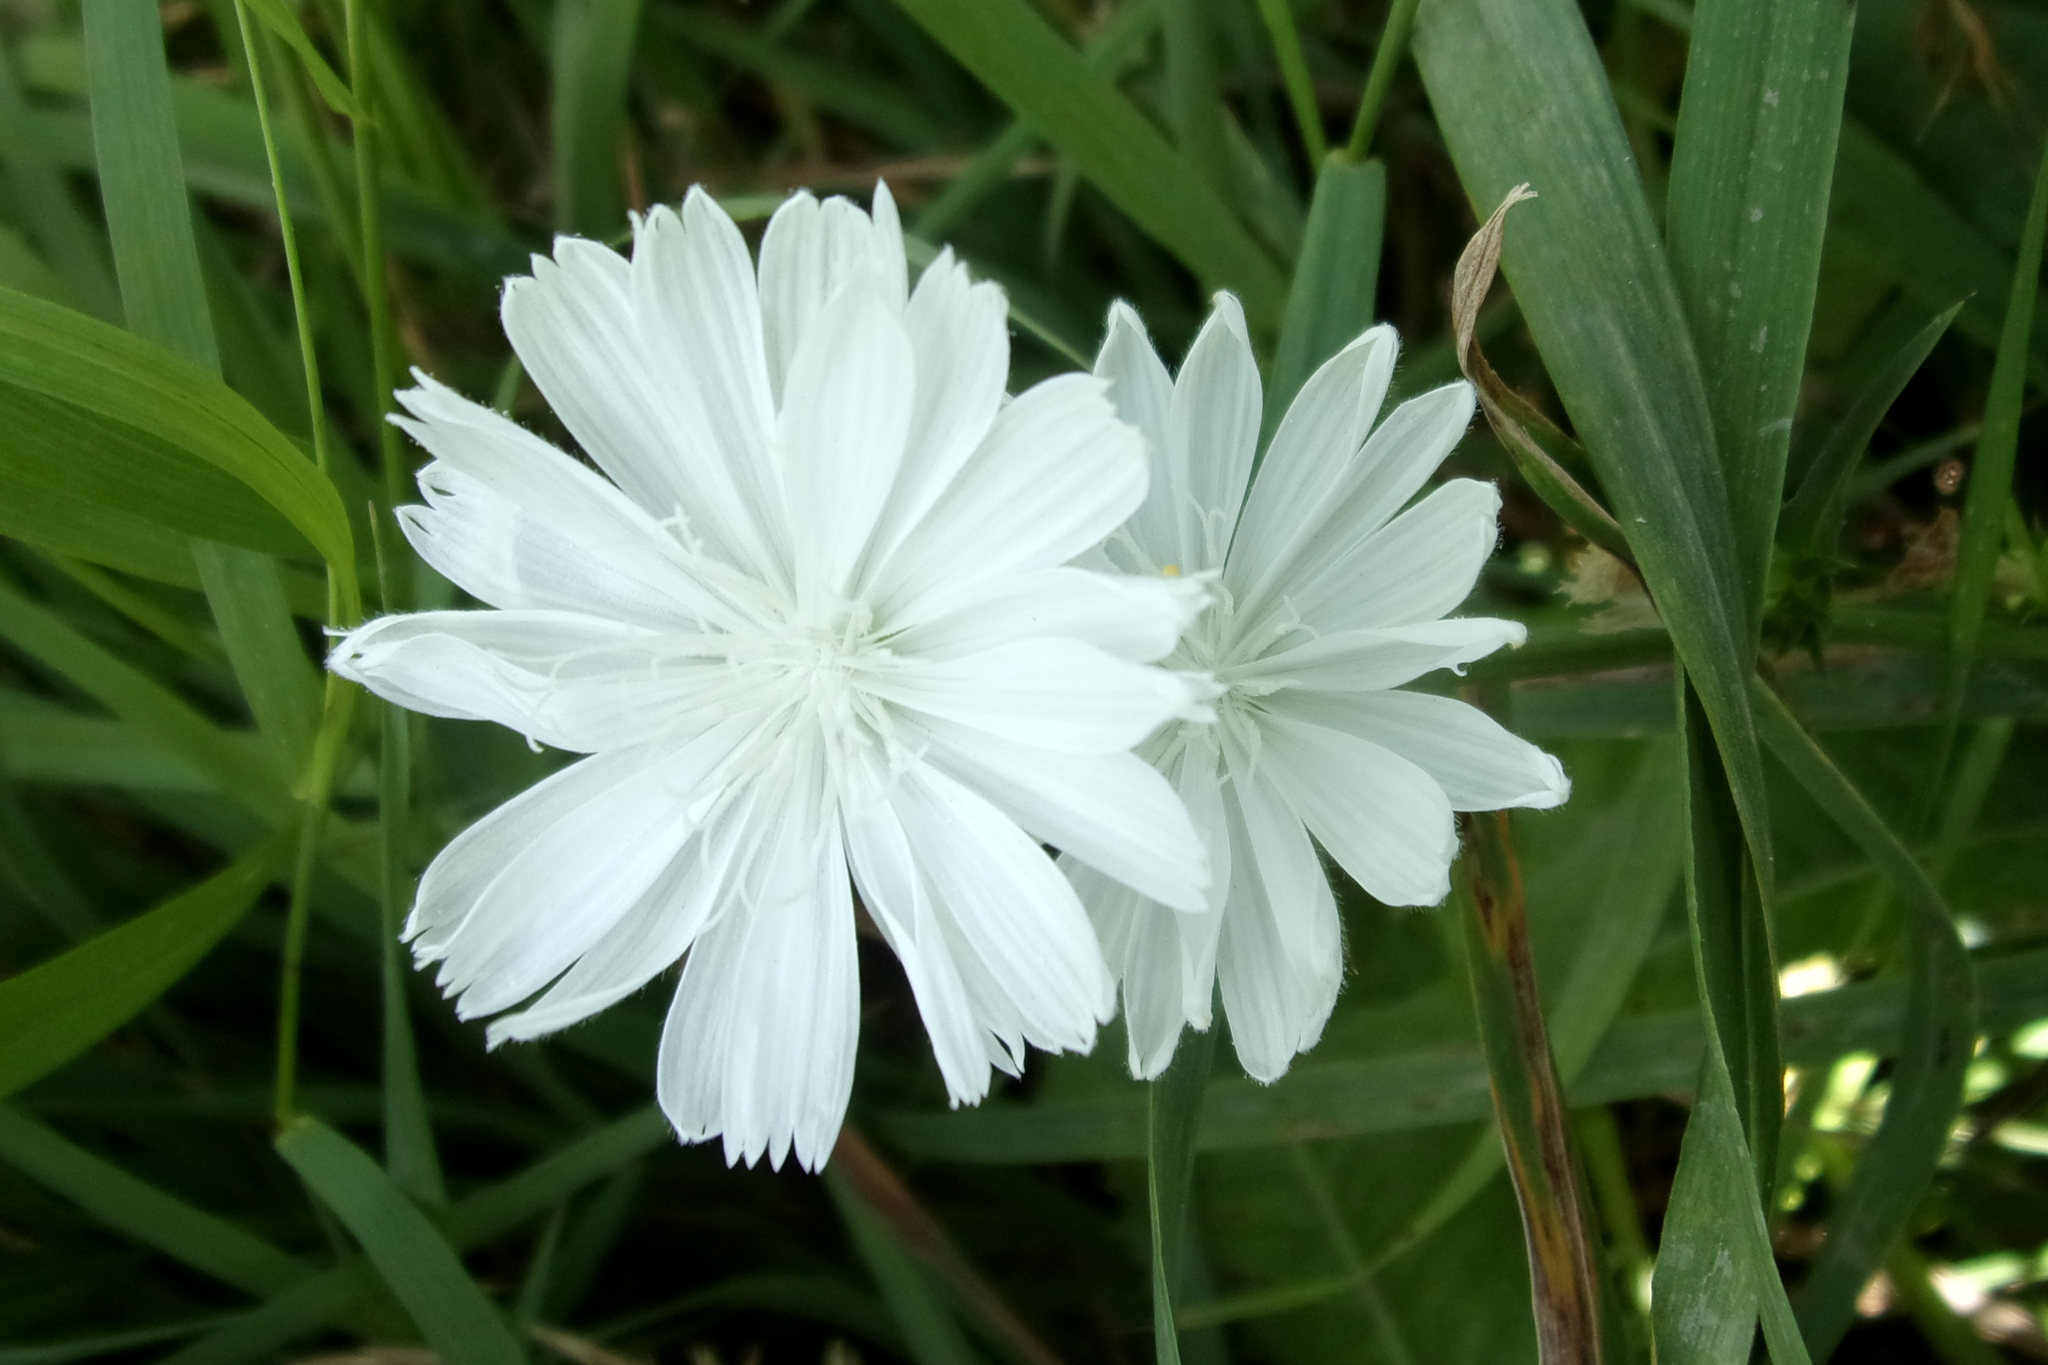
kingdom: Plantae
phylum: Tracheophyta
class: Magnoliopsida
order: Asterales
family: Asteraceae
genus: Cichorium
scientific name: Cichorium intybus
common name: Chicory
